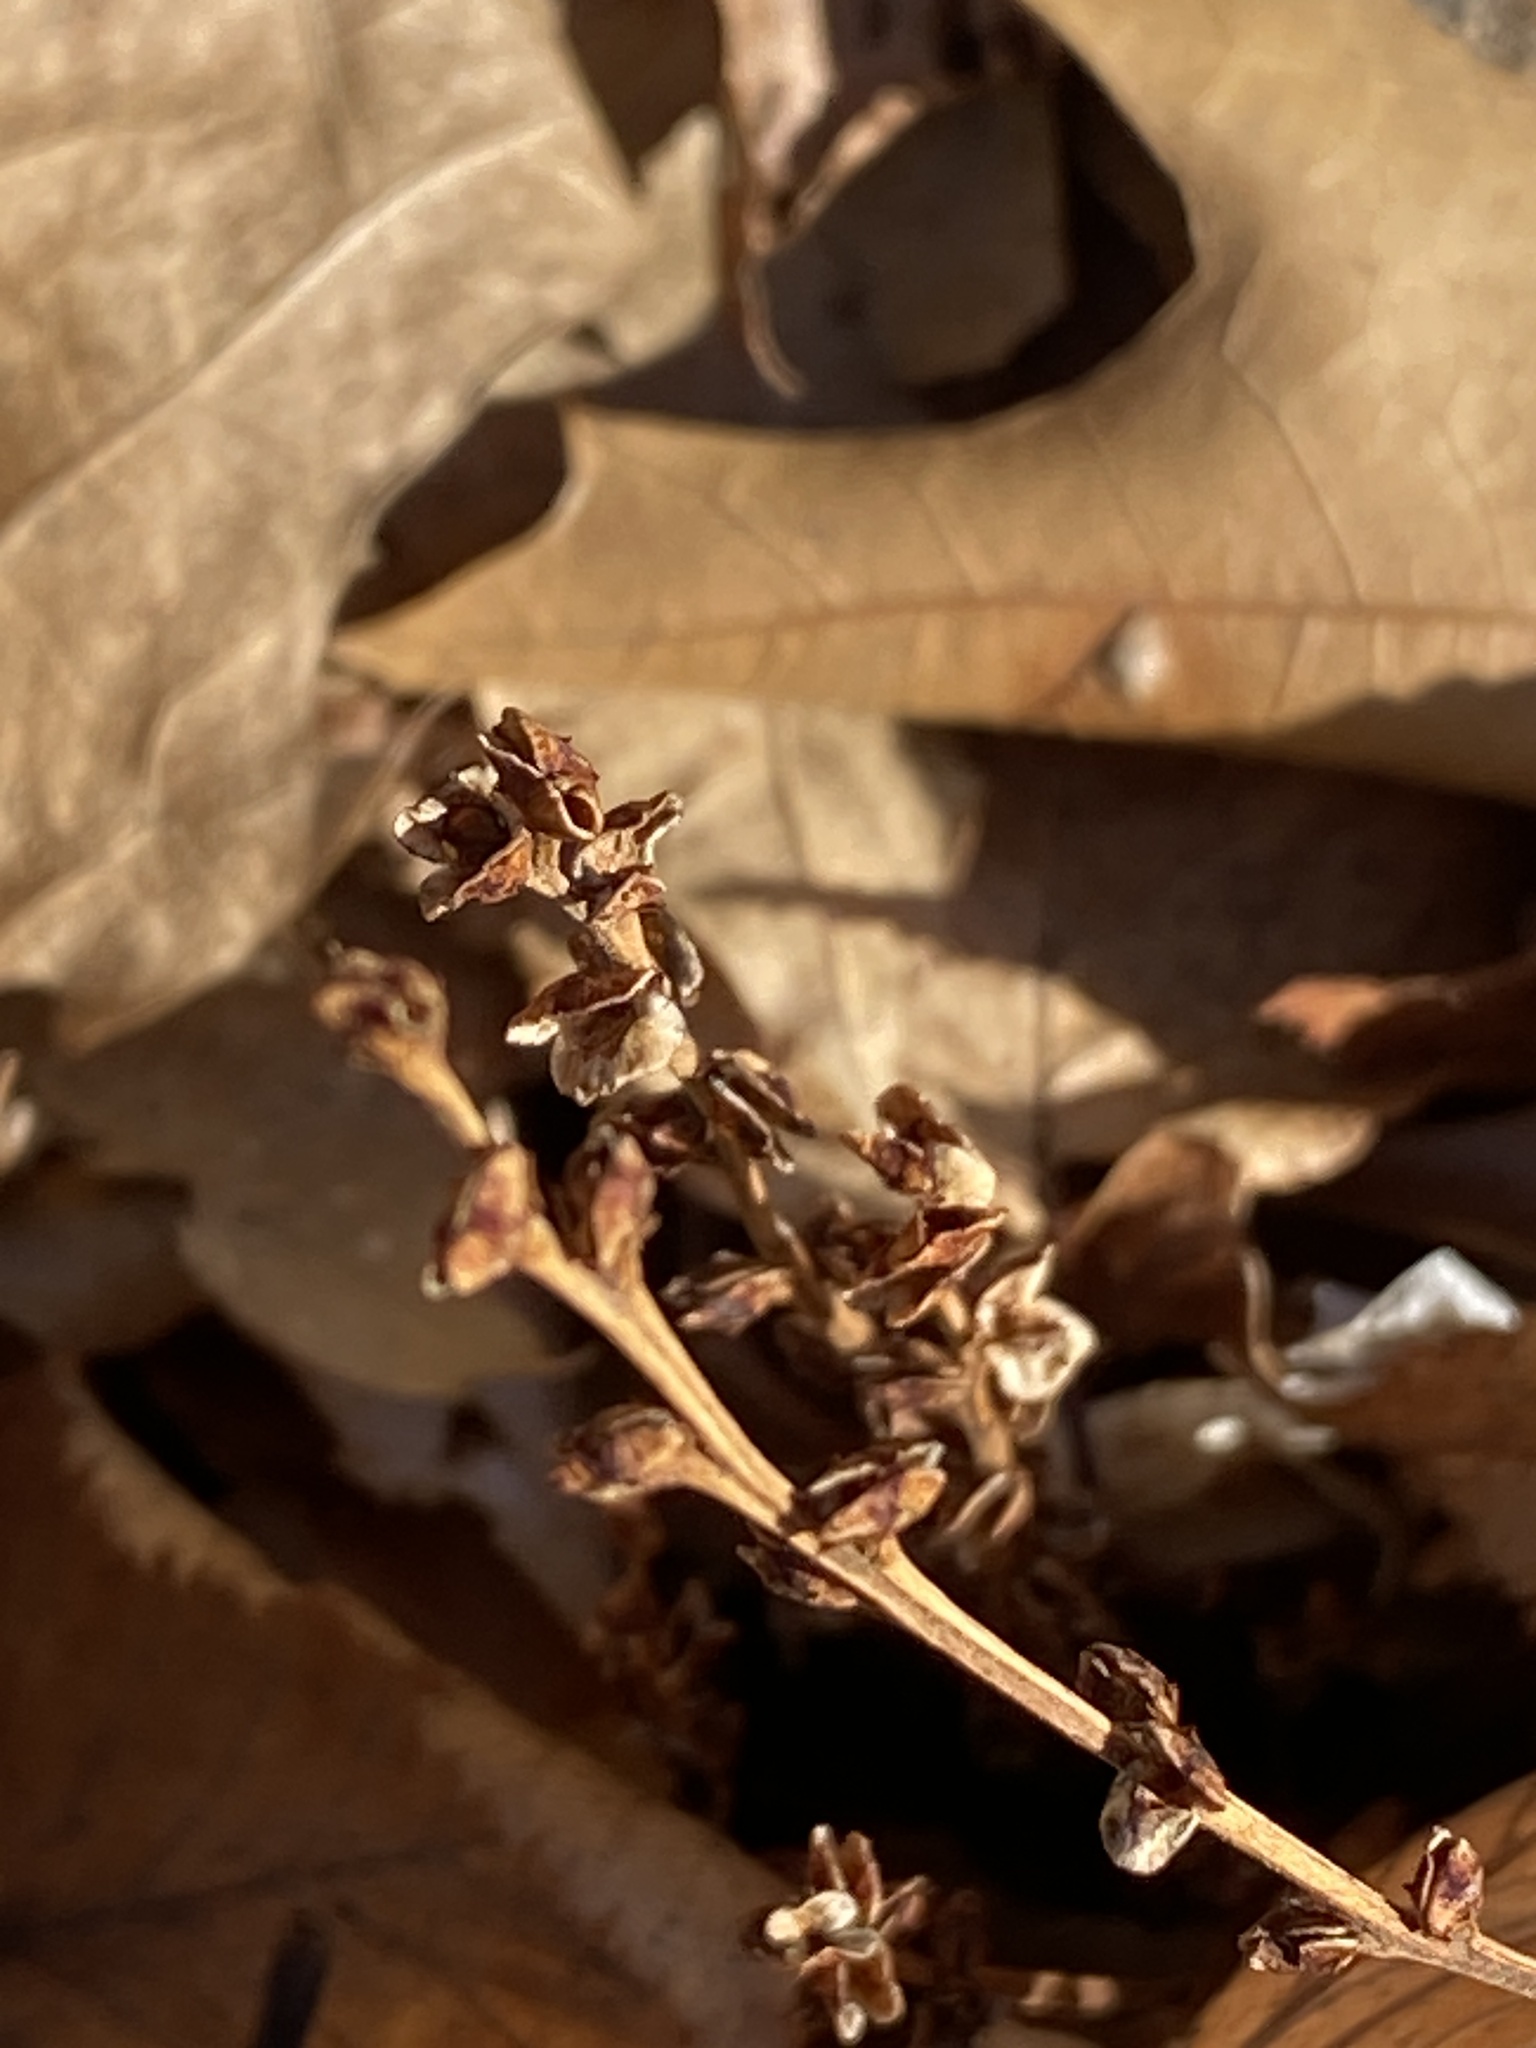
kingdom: Plantae
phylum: Tracheophyta
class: Magnoliopsida
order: Lamiales
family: Orobanchaceae
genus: Epifagus
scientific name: Epifagus virginiana
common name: Beechdrops
